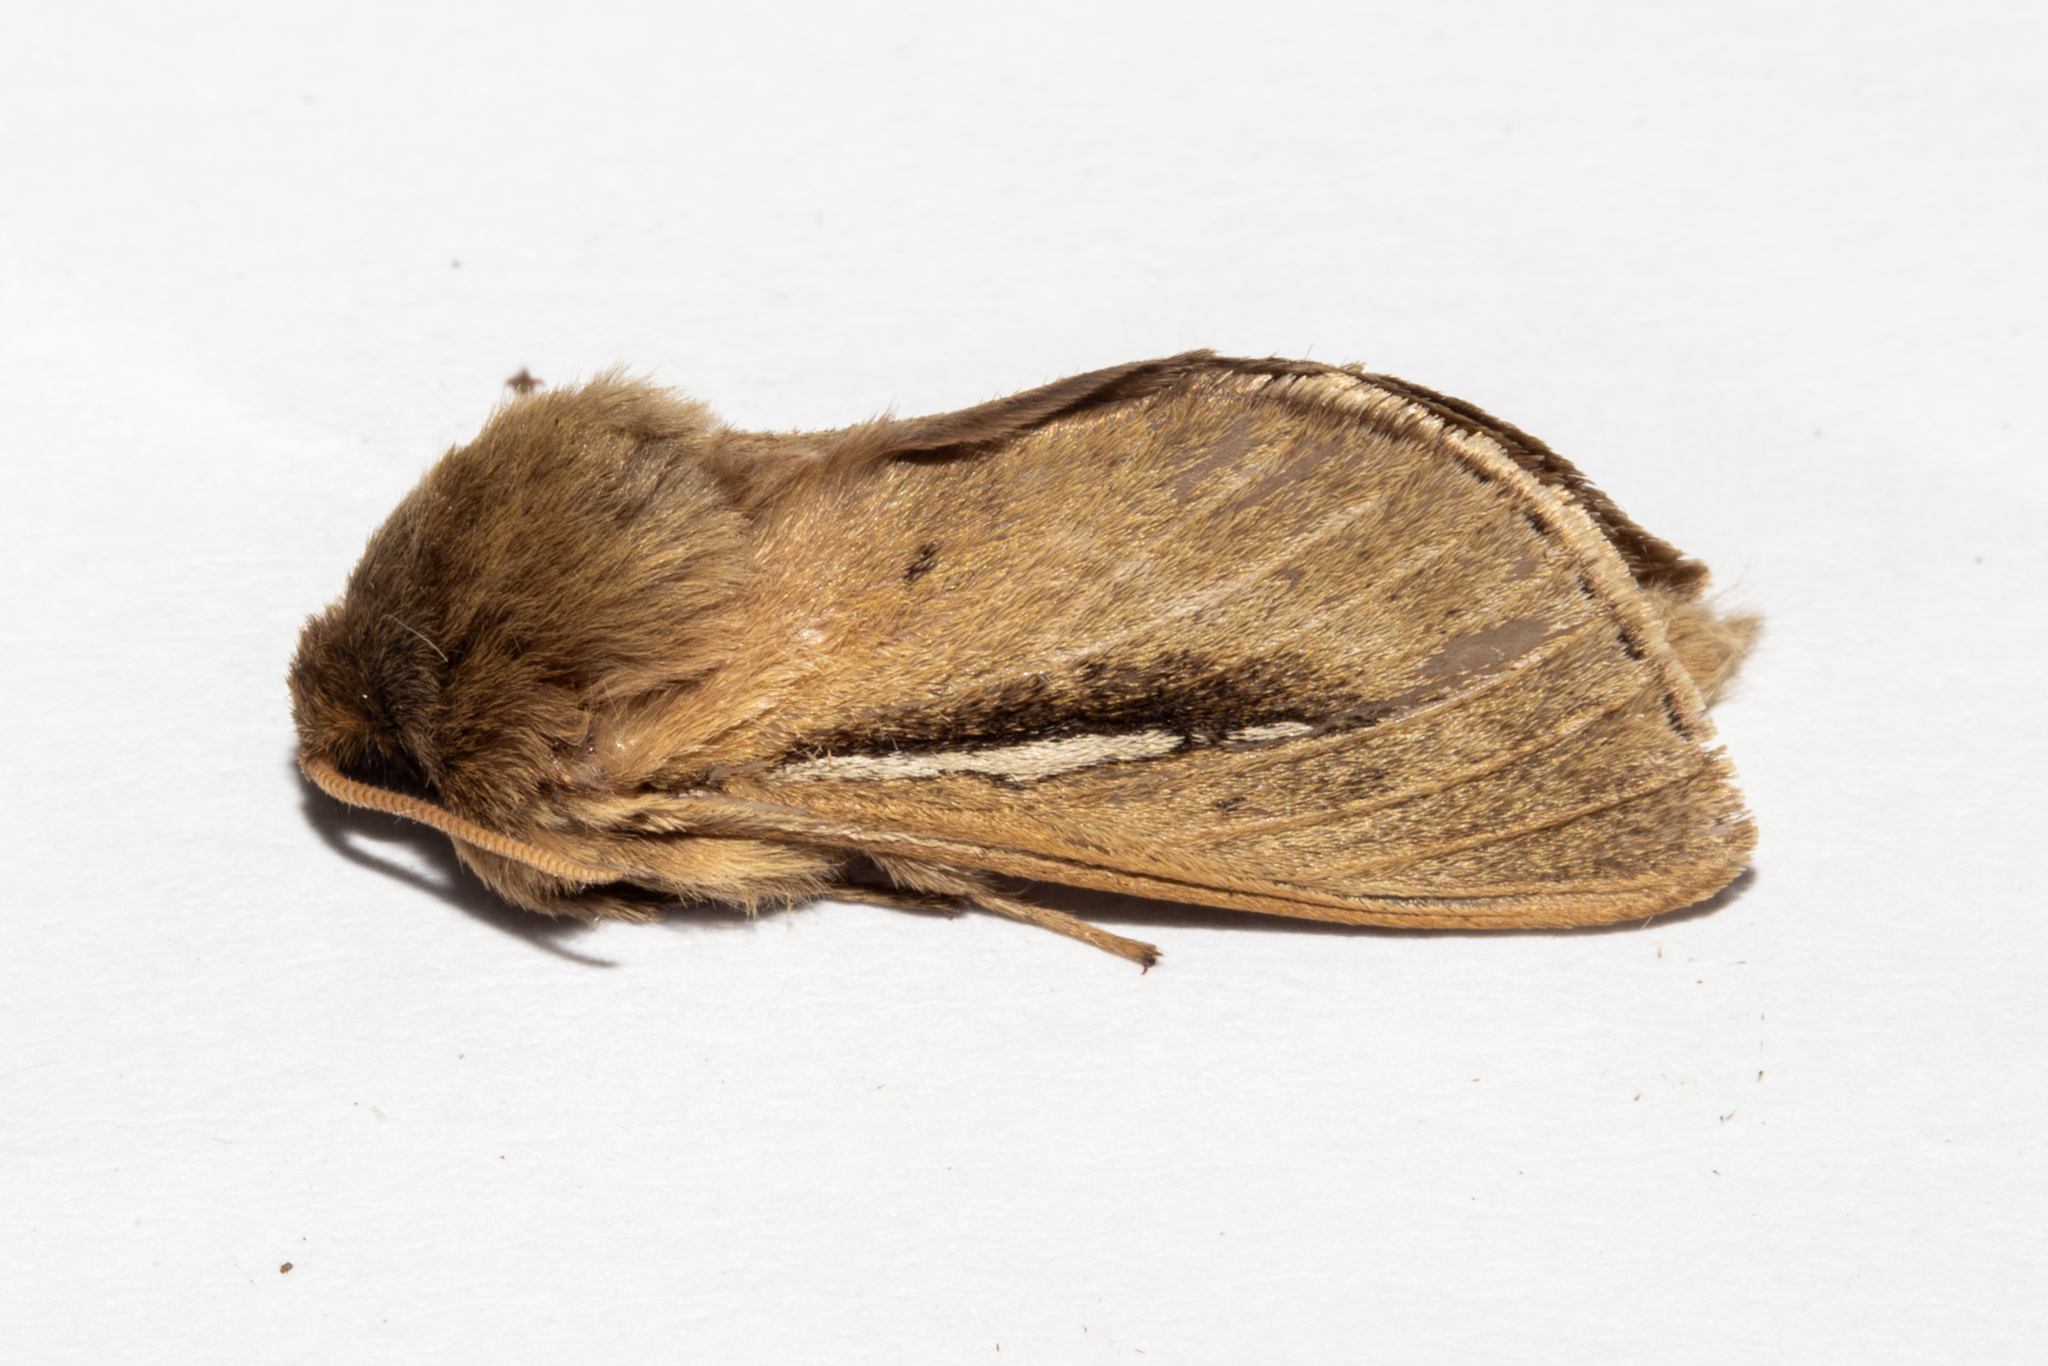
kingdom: Animalia
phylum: Arthropoda
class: Insecta
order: Lepidoptera
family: Hepialidae
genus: Wiseana
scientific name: Wiseana umbraculatus
